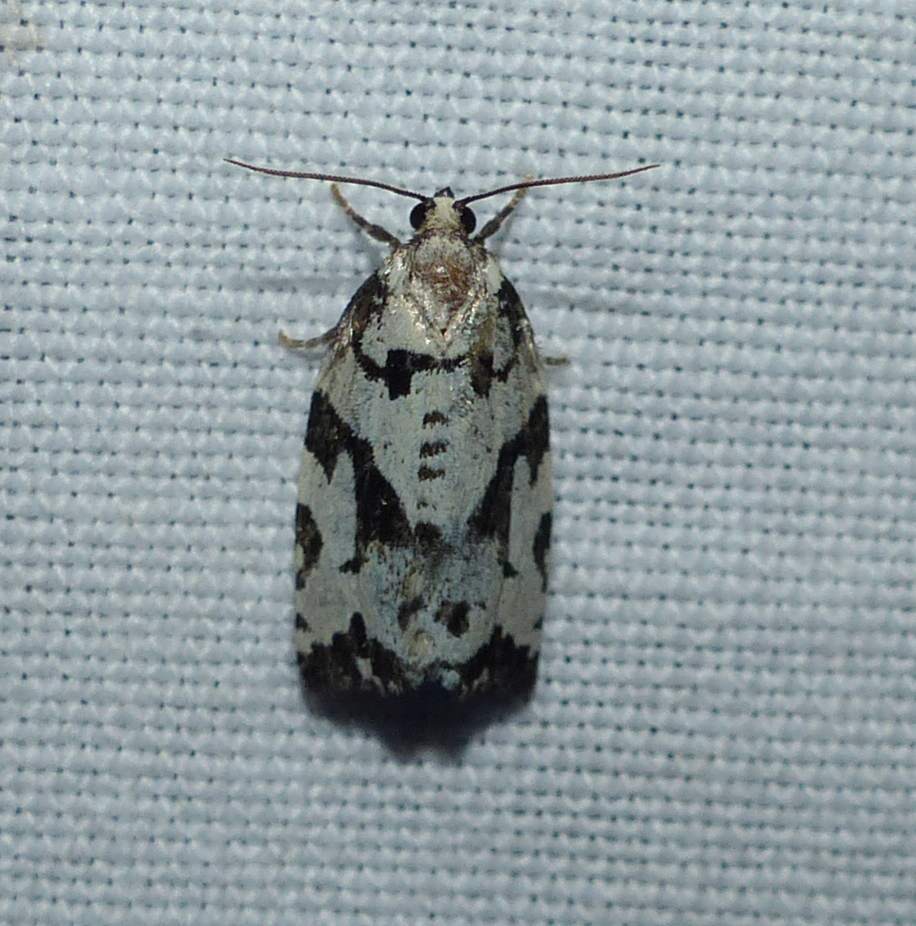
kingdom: Animalia
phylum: Arthropoda
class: Insecta
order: Lepidoptera
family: Tortricidae
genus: Archips
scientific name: Archips dissitana
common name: Boldly-marked archips moth
